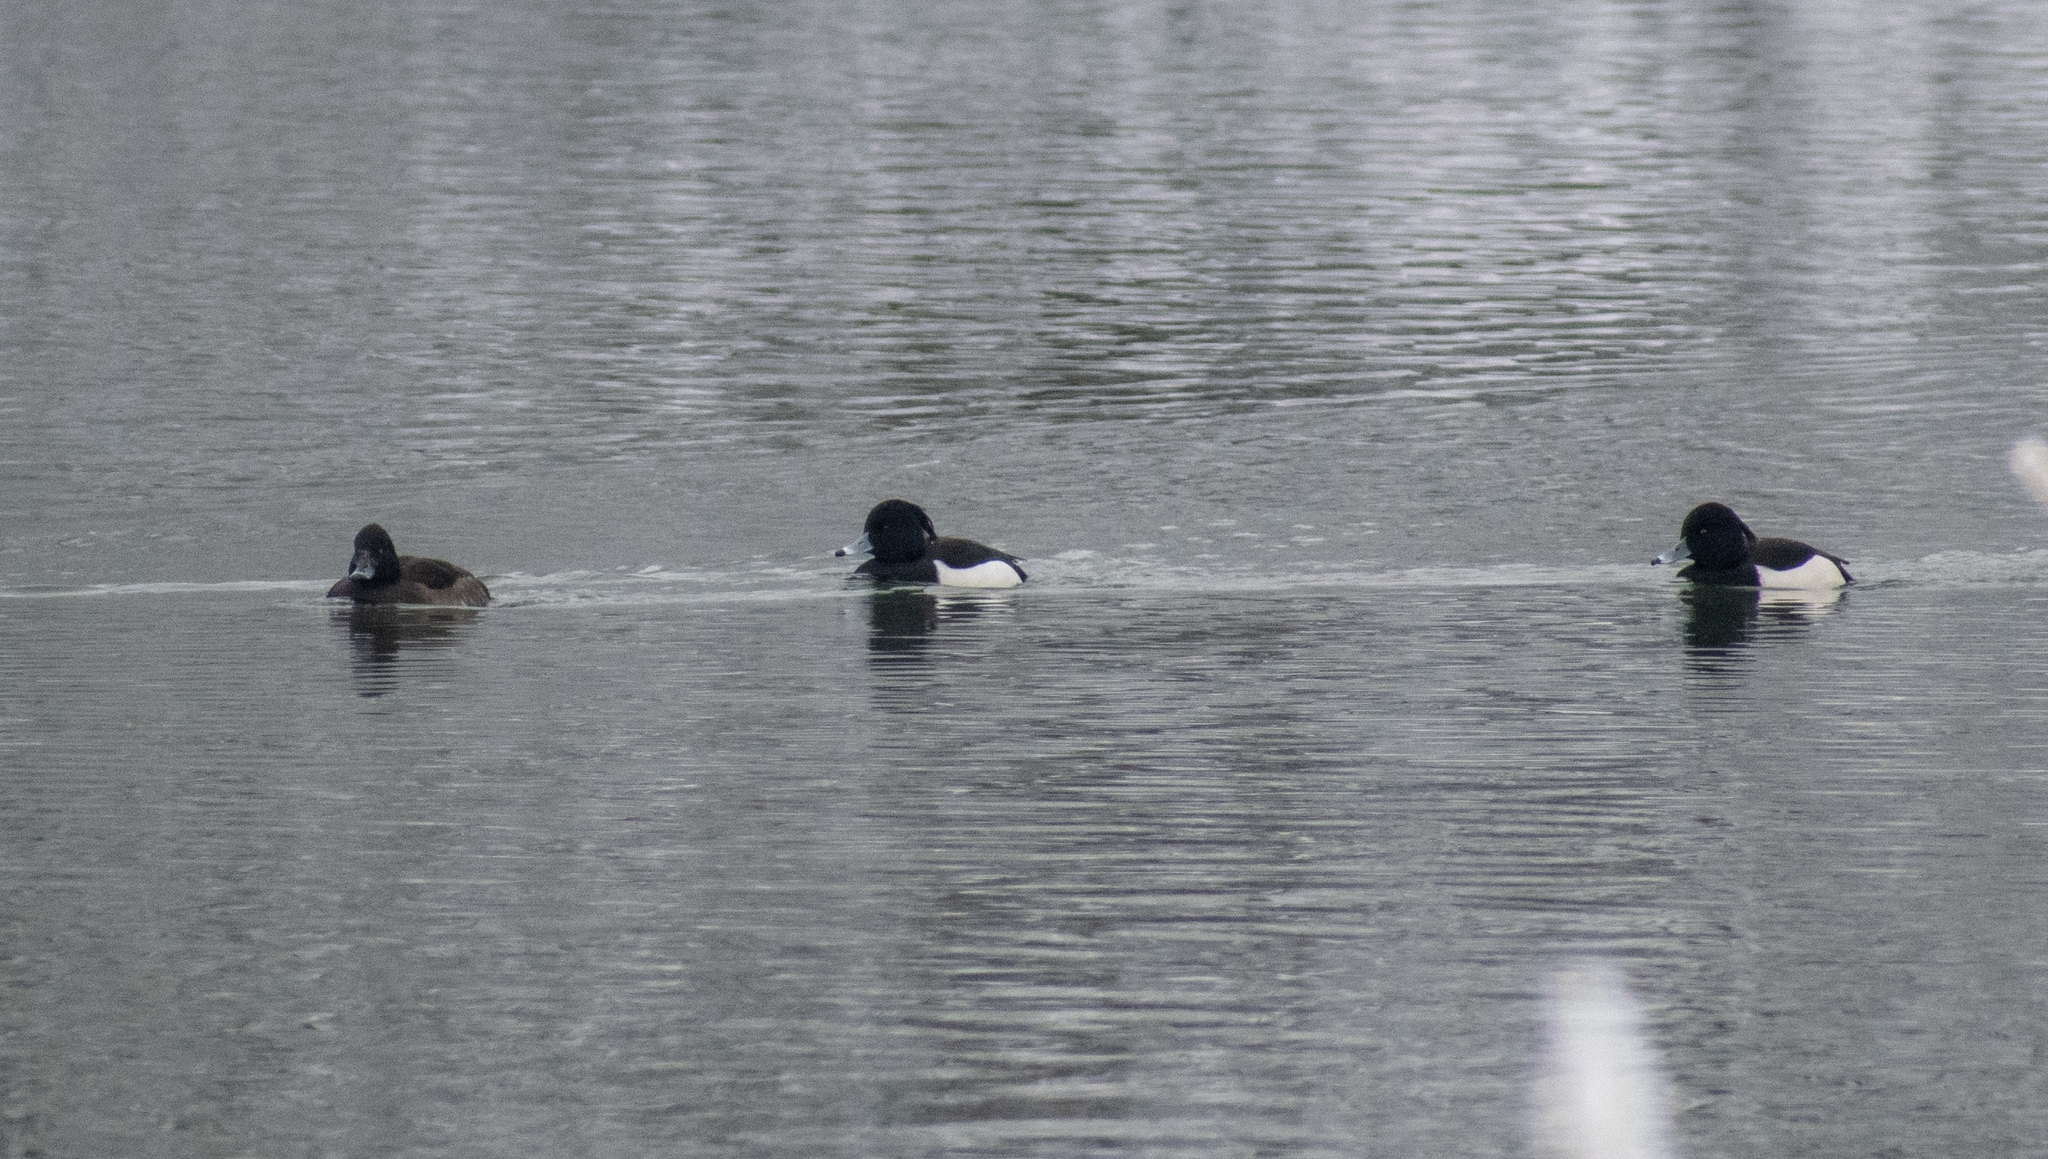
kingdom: Animalia
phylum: Chordata
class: Aves
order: Anseriformes
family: Anatidae
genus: Aythya
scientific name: Aythya fuligula
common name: Tufted duck
